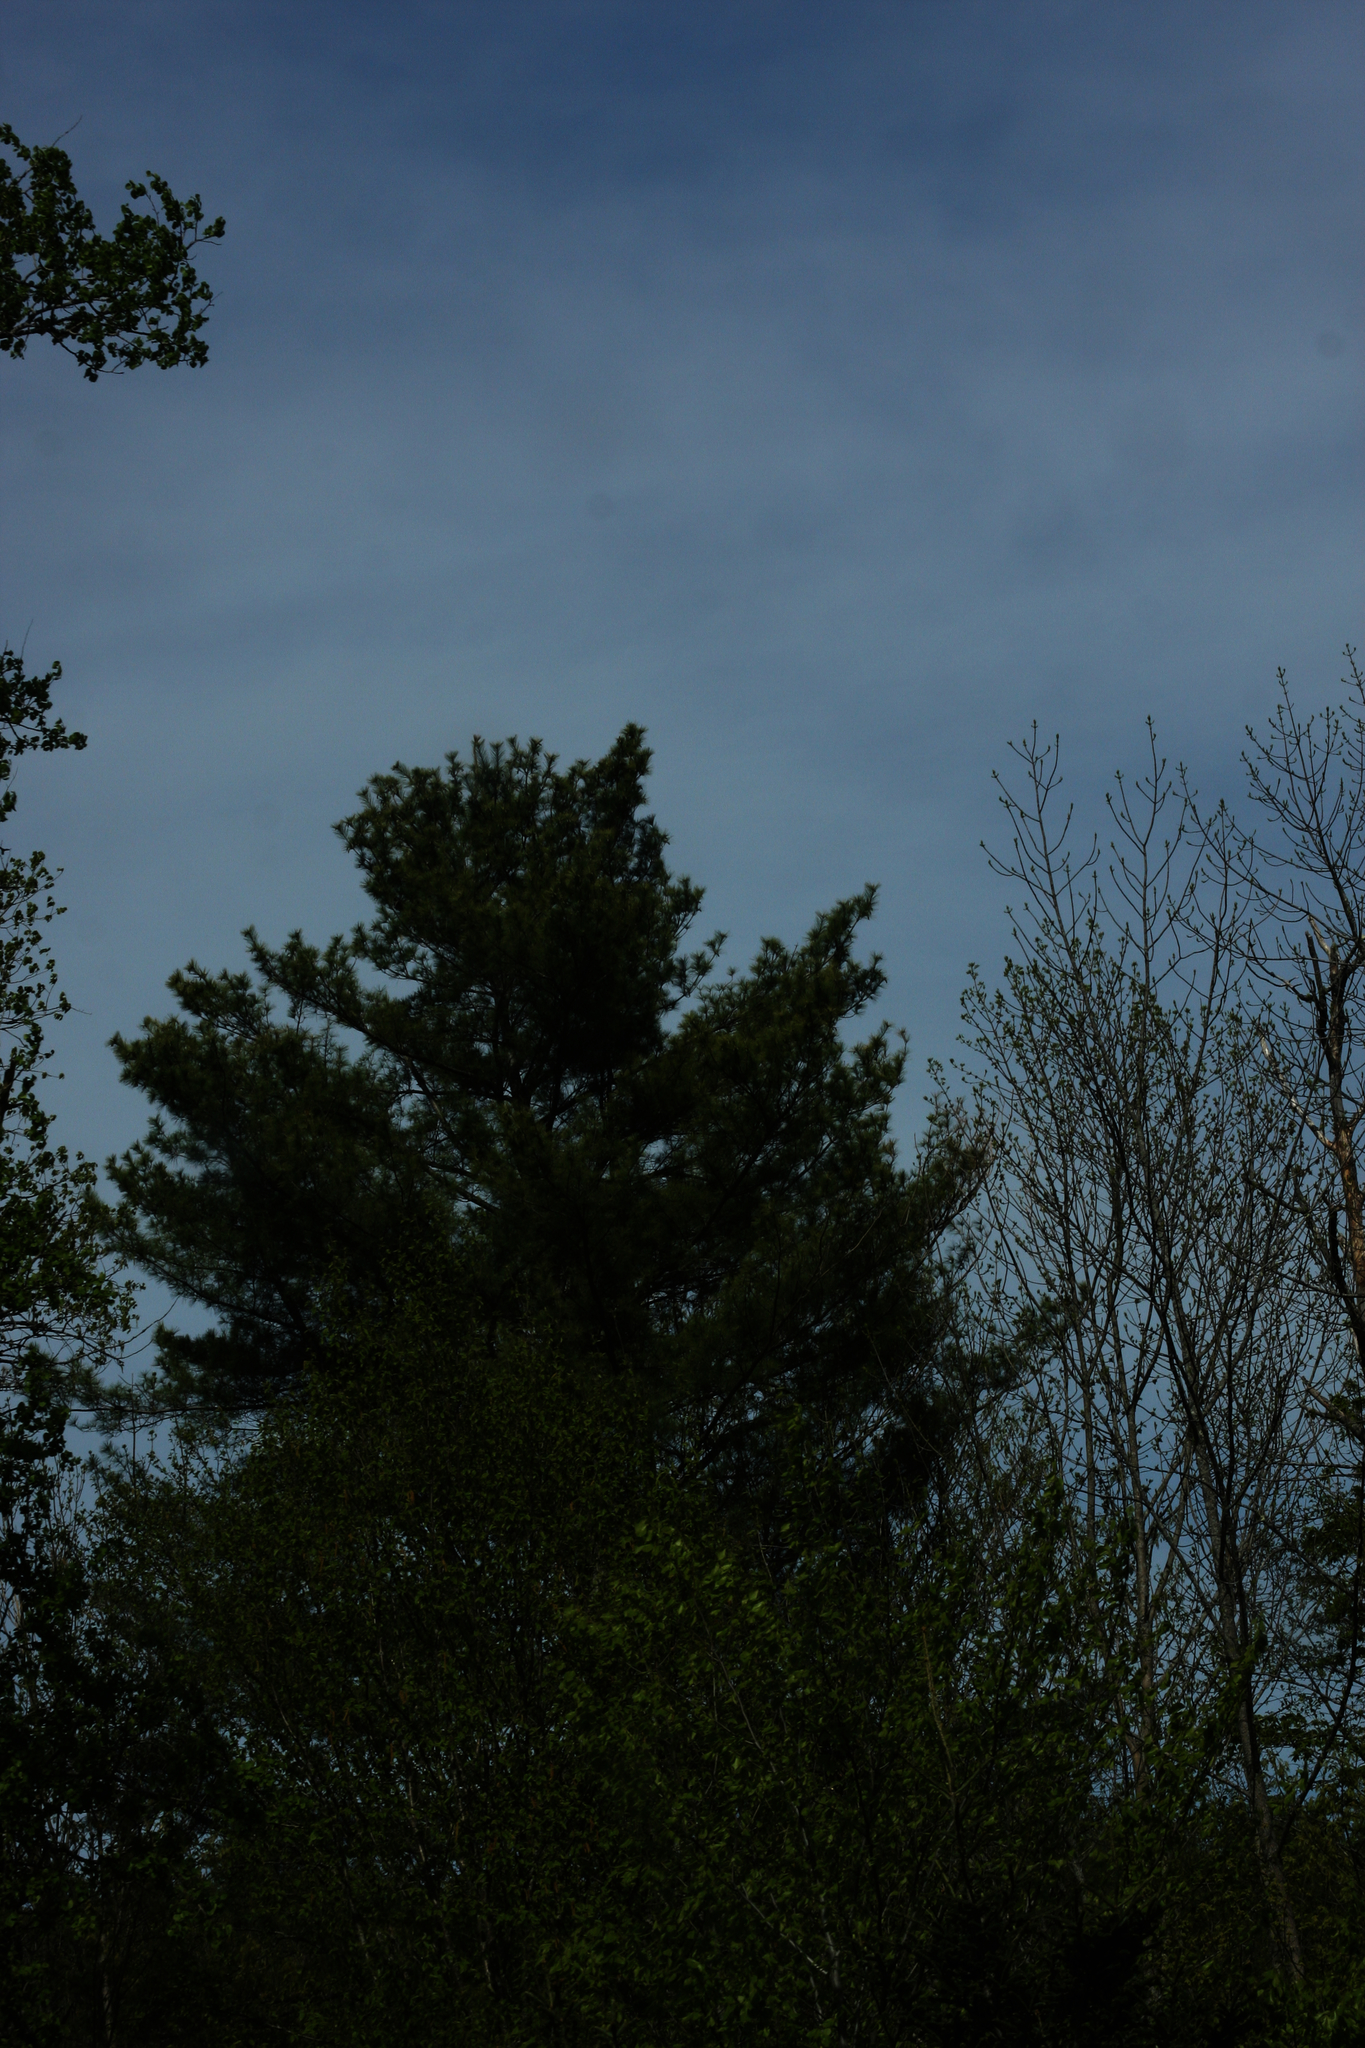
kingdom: Plantae
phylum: Tracheophyta
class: Pinopsida
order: Pinales
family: Pinaceae
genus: Pinus
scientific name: Pinus strobus
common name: Weymouth pine
